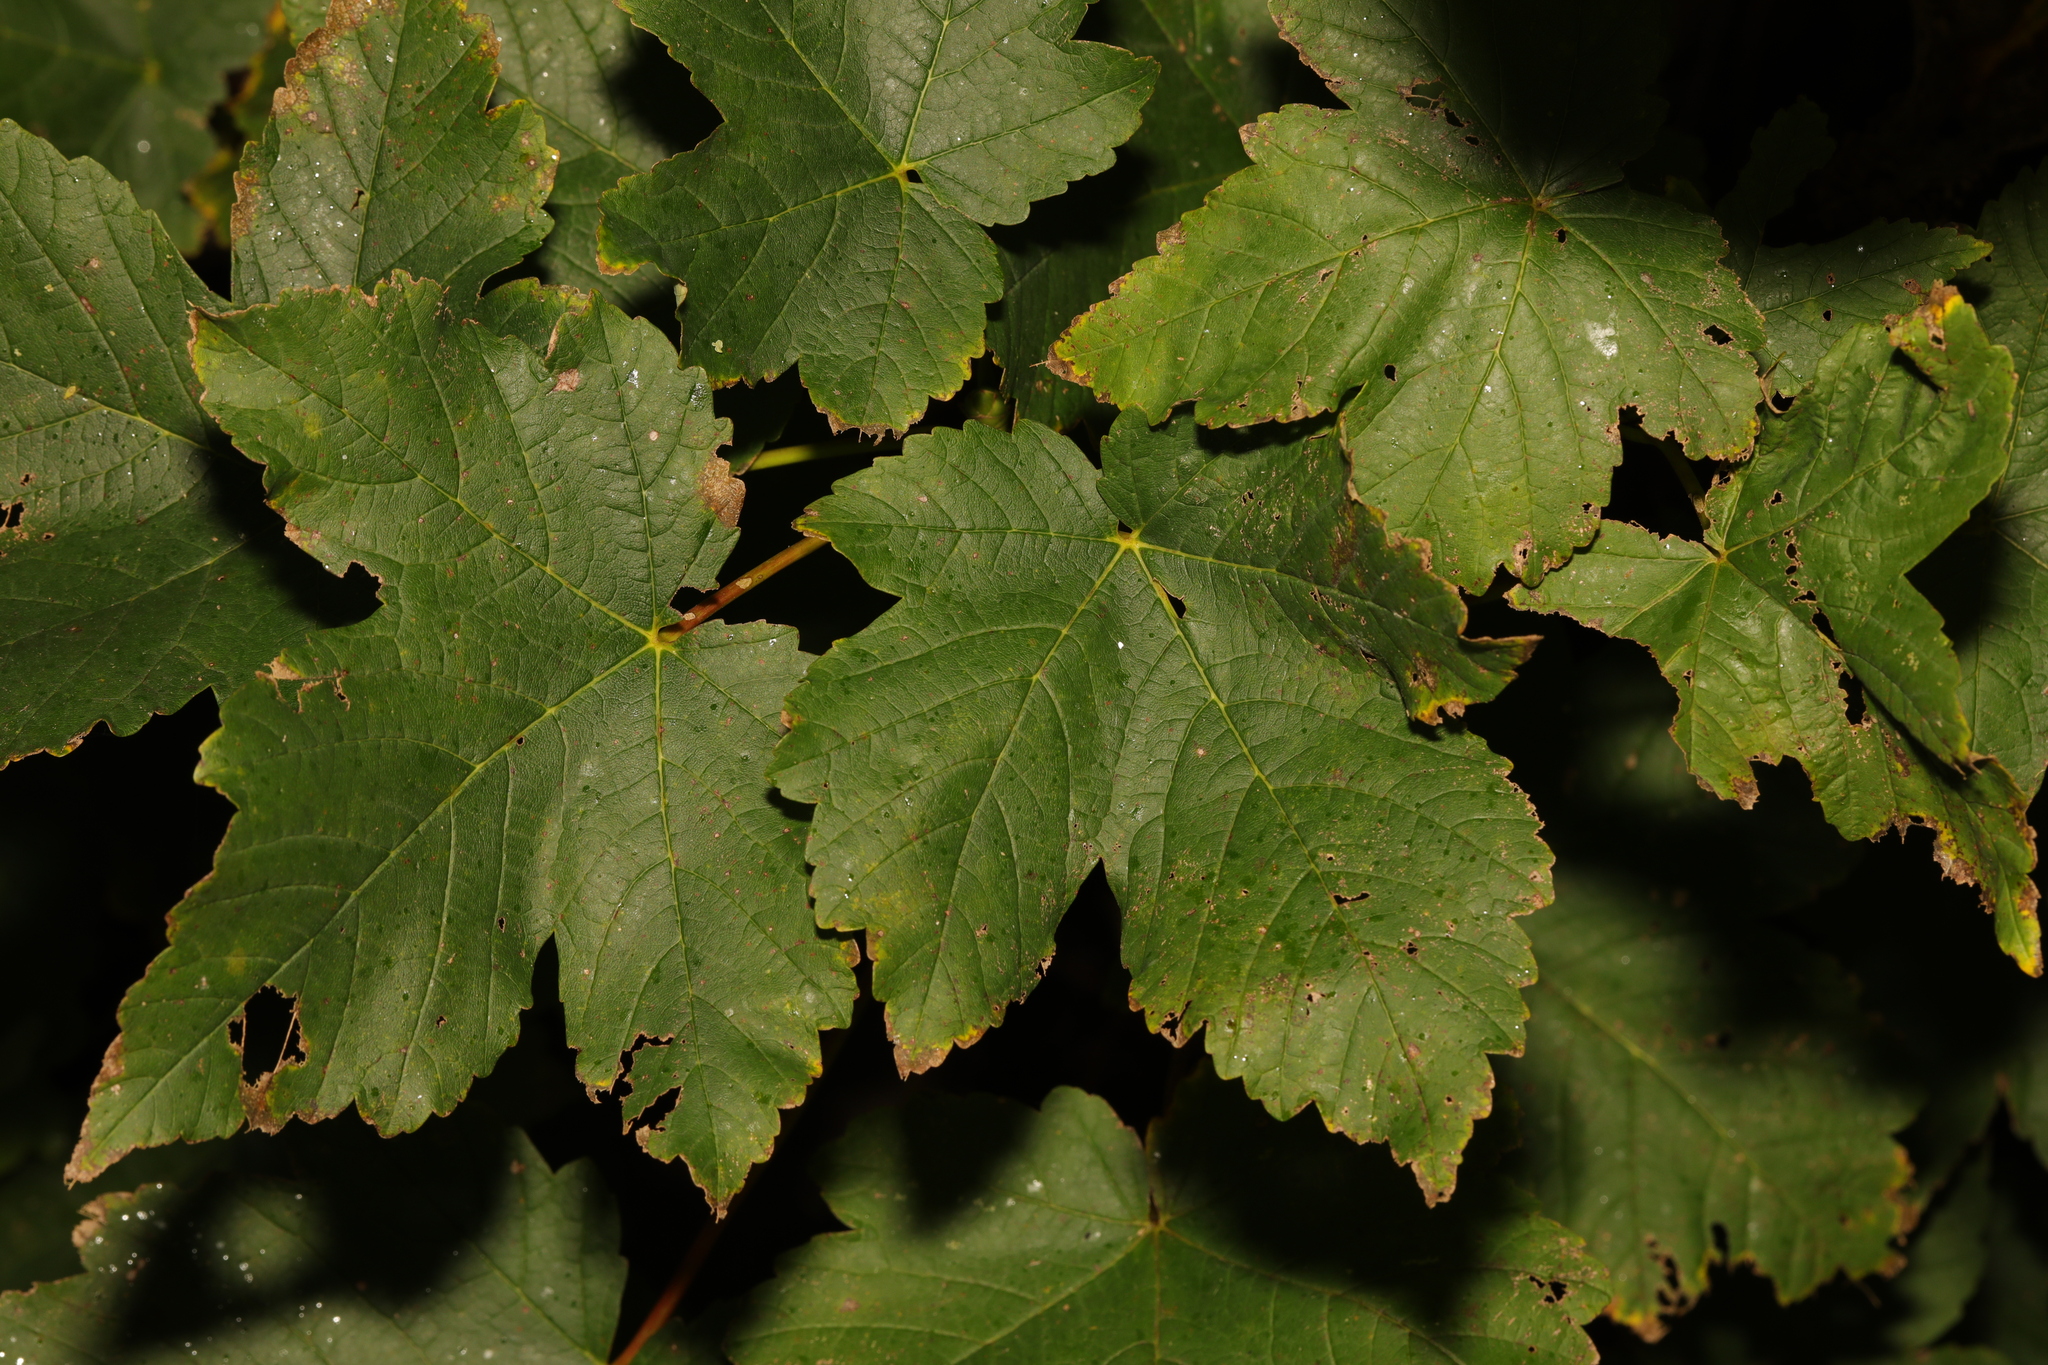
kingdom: Plantae
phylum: Tracheophyta
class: Magnoliopsida
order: Sapindales
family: Sapindaceae
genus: Acer
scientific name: Acer pseudoplatanus
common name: Sycamore
